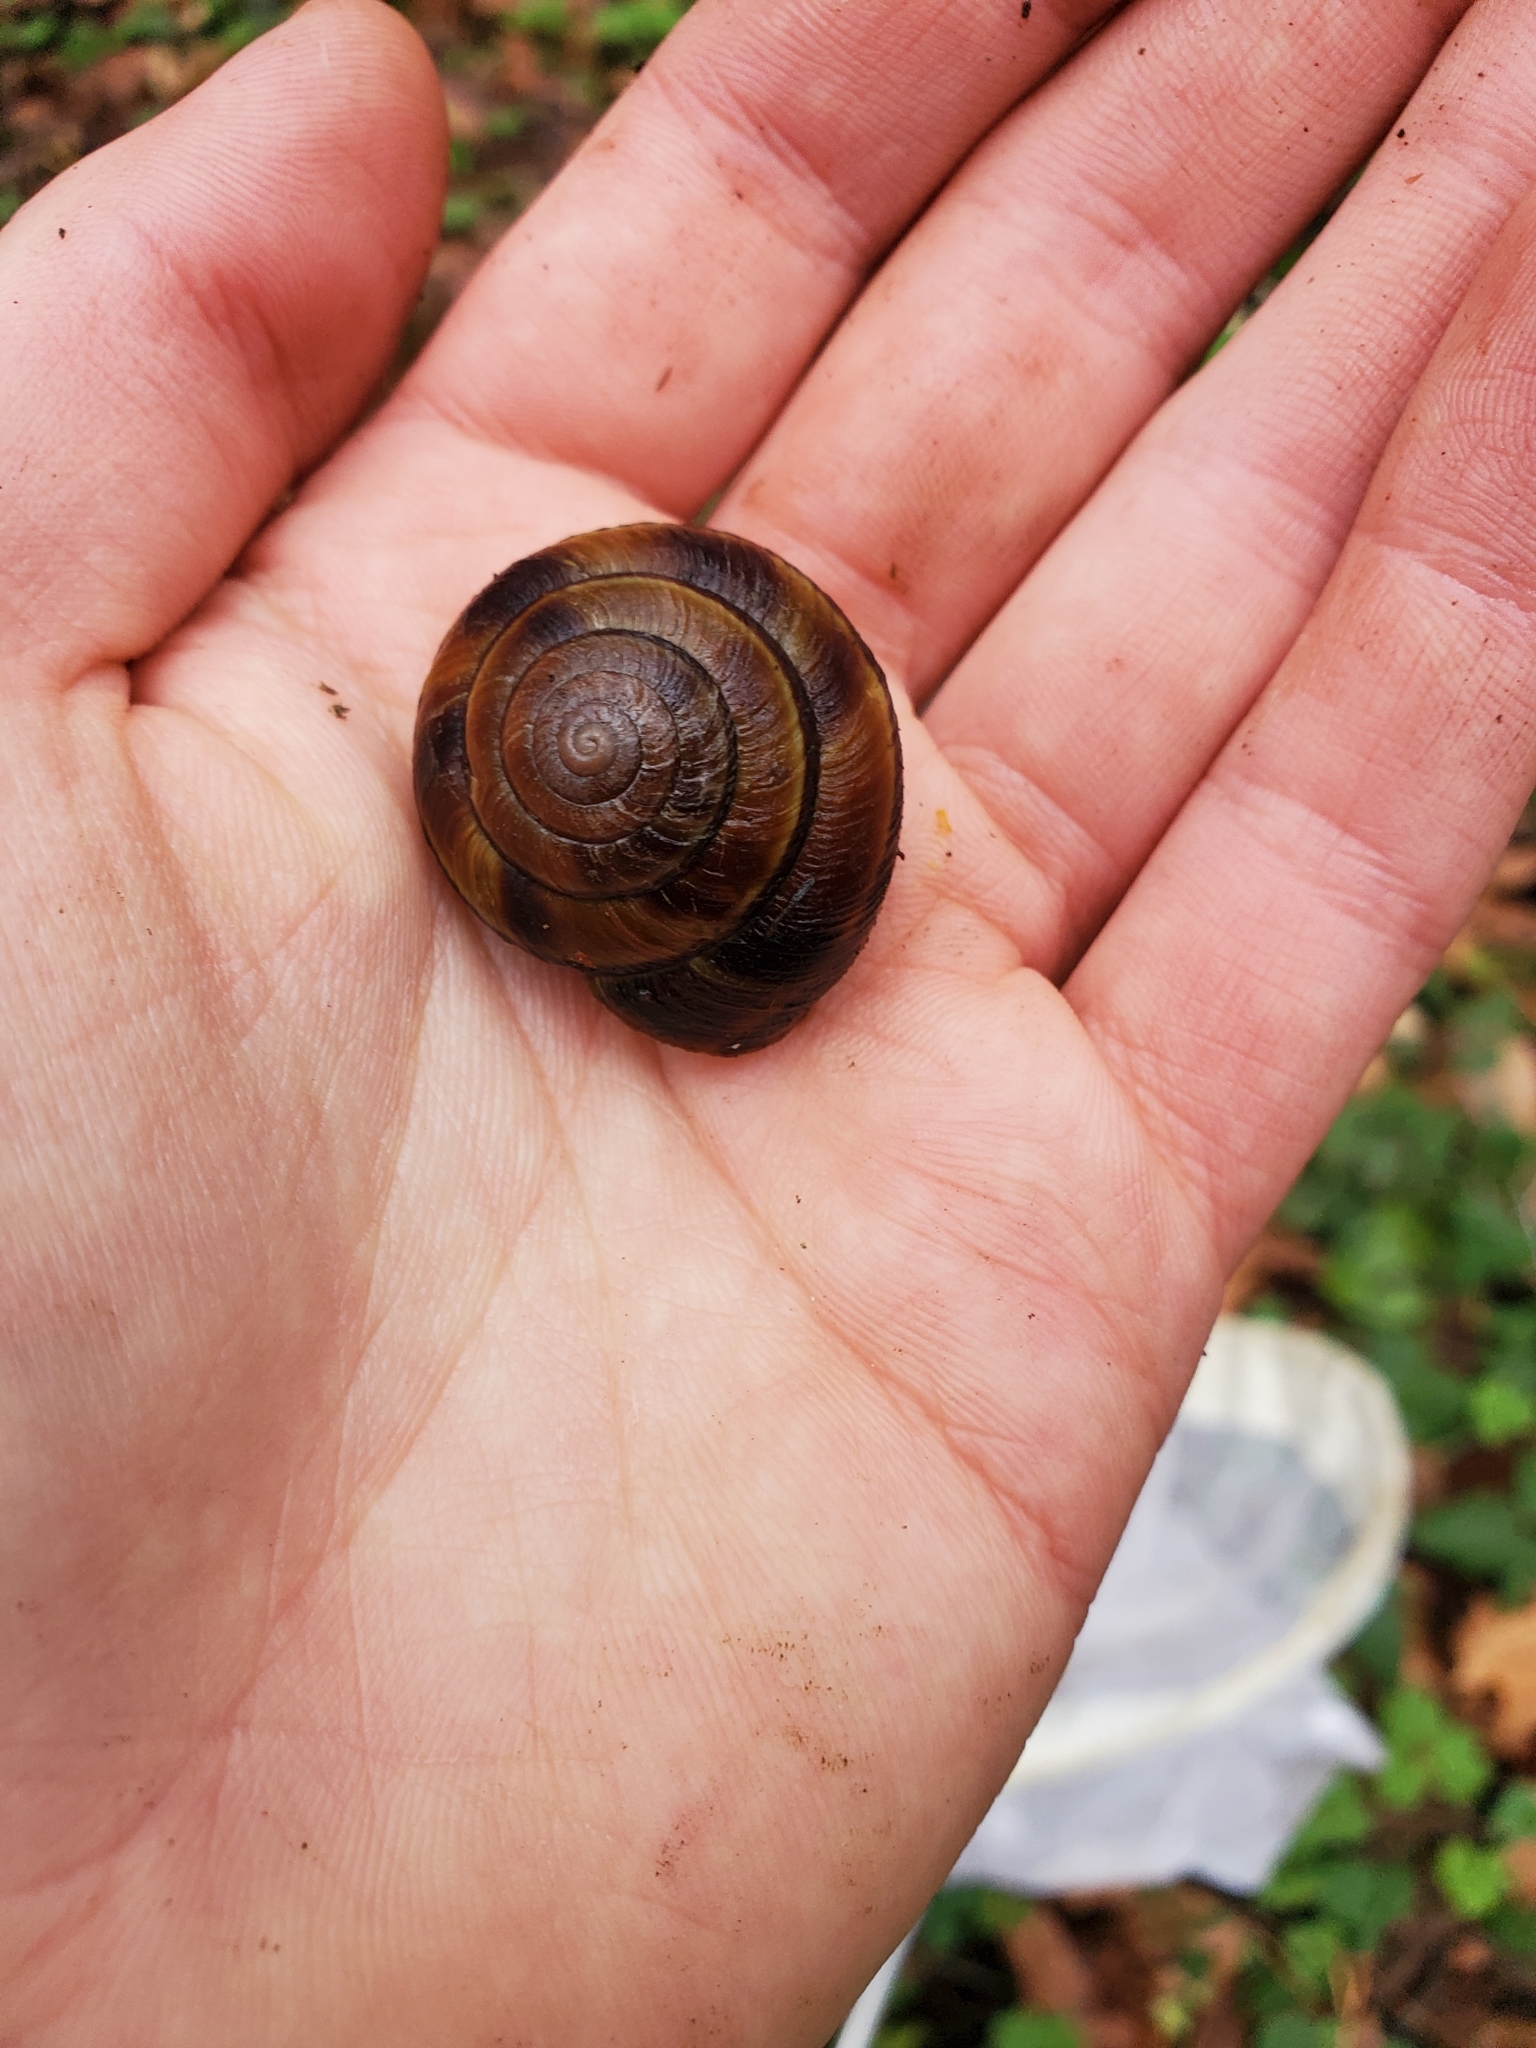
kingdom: Animalia
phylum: Mollusca
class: Gastropoda
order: Stylommatophora
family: Xanthonychidae
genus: Monadenia
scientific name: Monadenia fidelis
